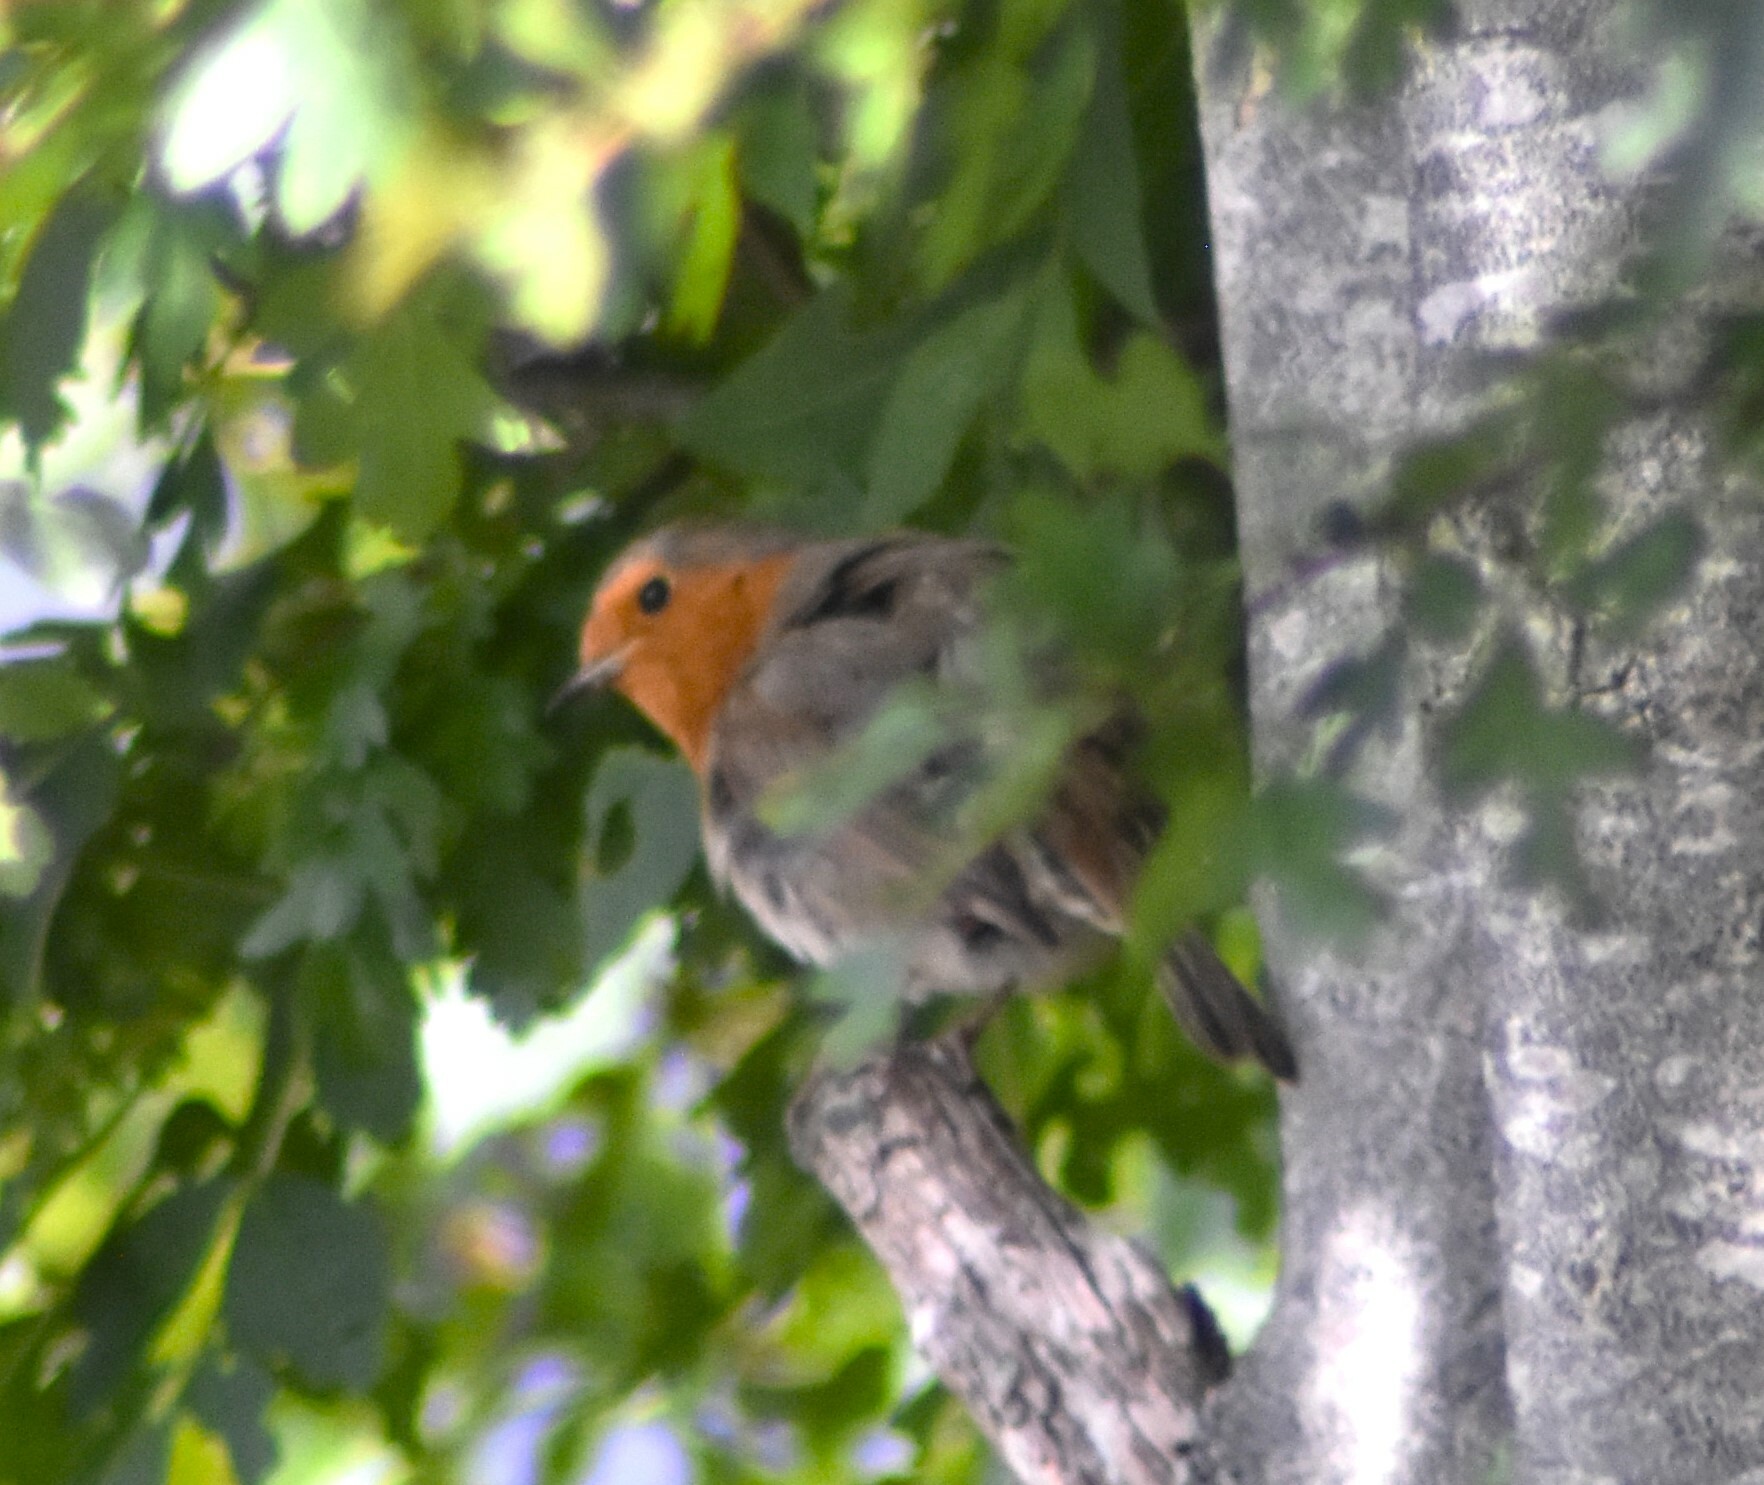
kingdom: Animalia
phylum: Chordata
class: Aves
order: Passeriformes
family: Muscicapidae
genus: Erithacus
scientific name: Erithacus rubecula
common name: European robin
